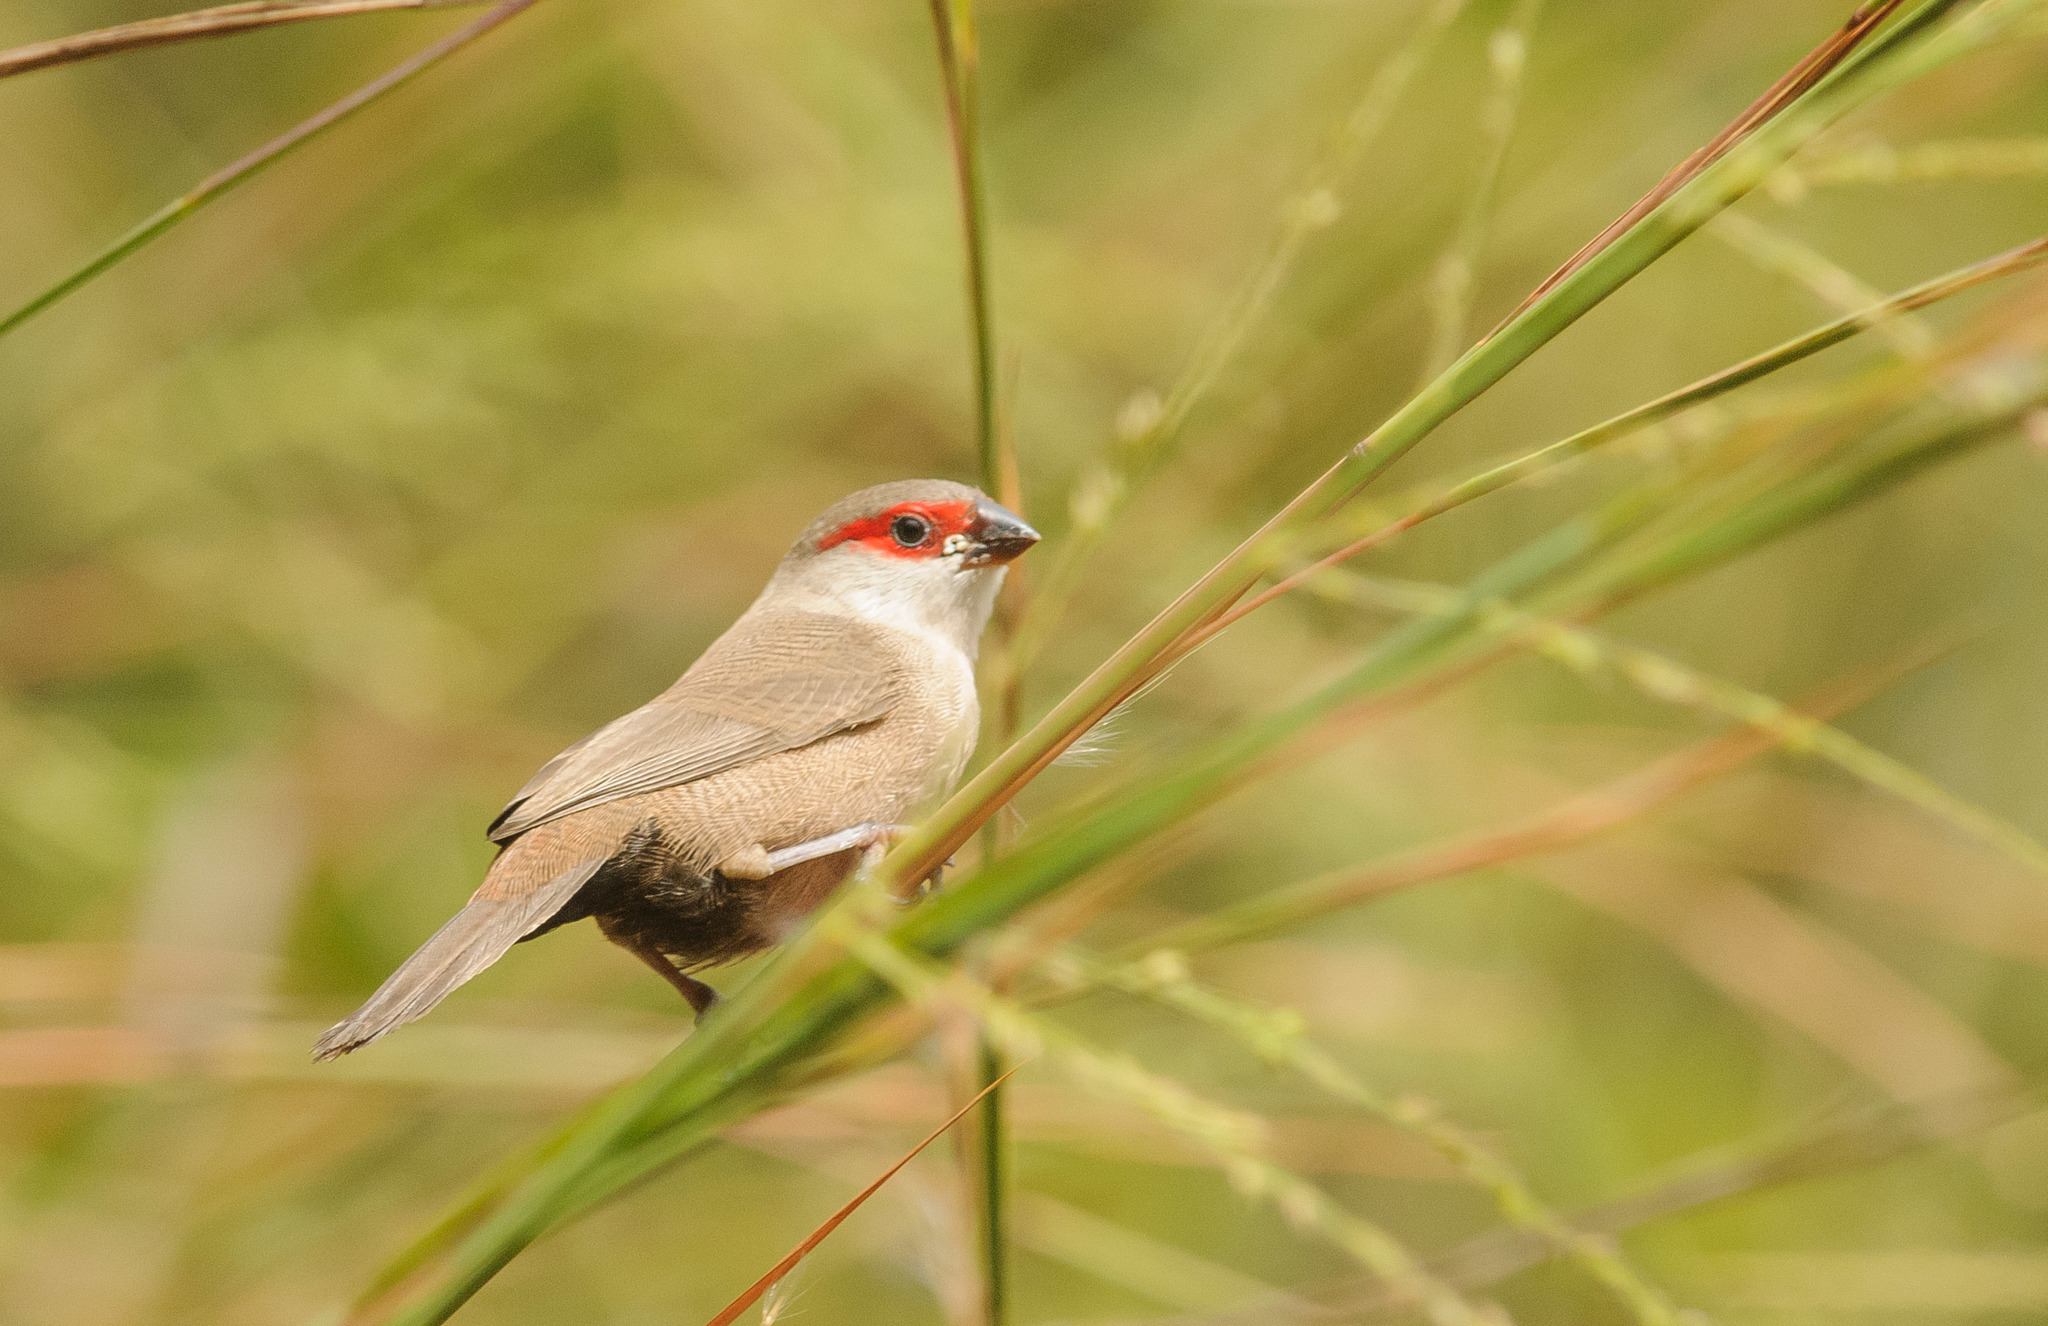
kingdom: Animalia
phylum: Chordata
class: Aves
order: Passeriformes
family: Estrildidae
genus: Estrilda
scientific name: Estrilda astrild
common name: Common waxbill
